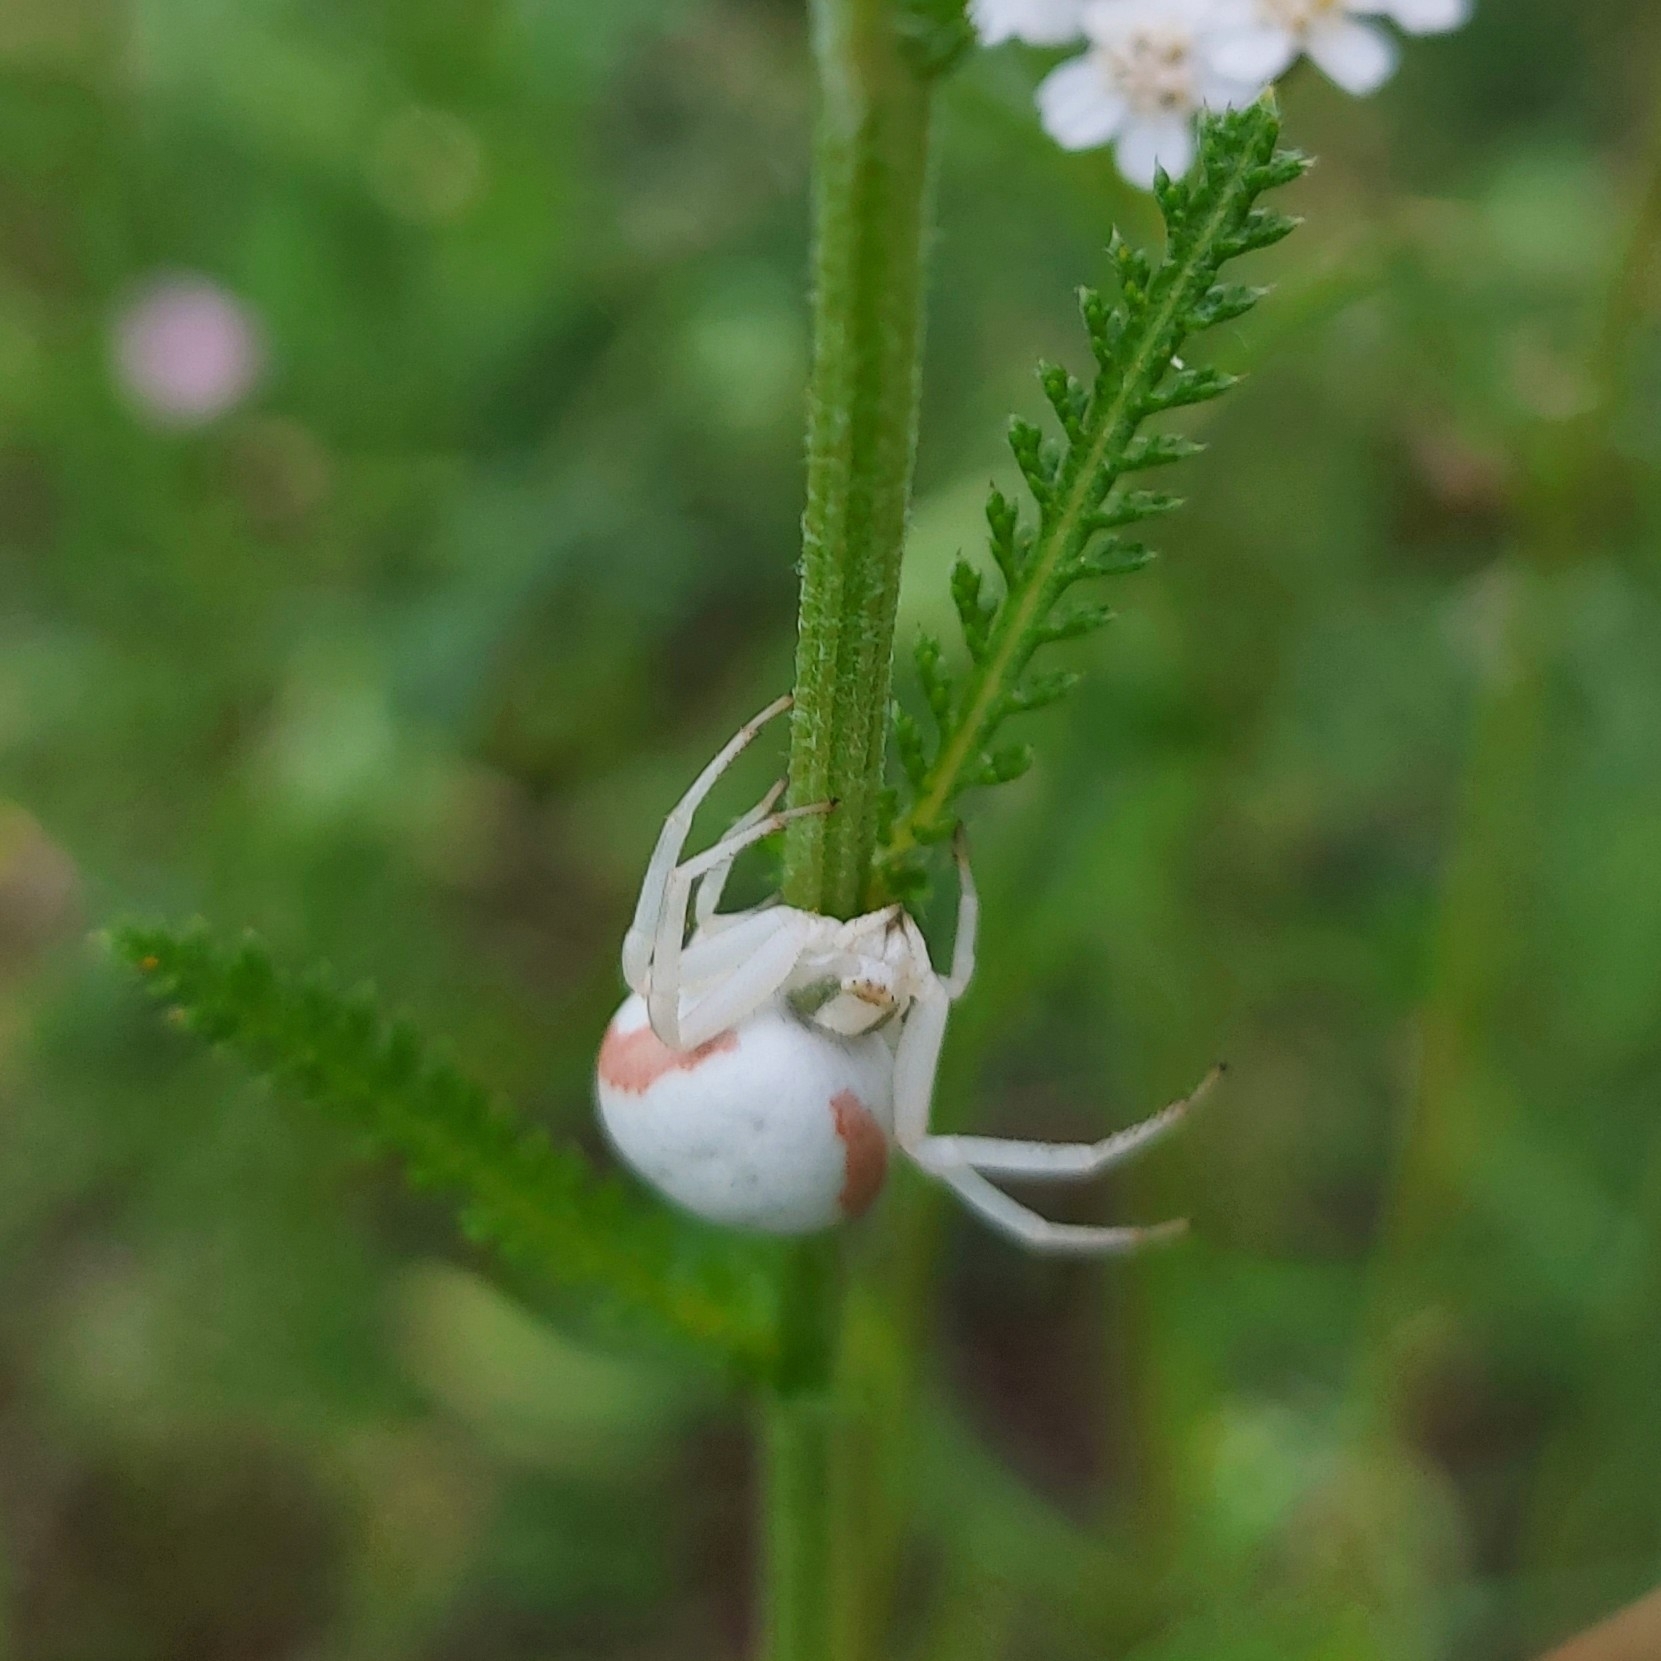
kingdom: Animalia
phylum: Arthropoda
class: Arachnida
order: Araneae
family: Thomisidae
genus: Misumena
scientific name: Misumena vatia
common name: Goldenrod crab spider
